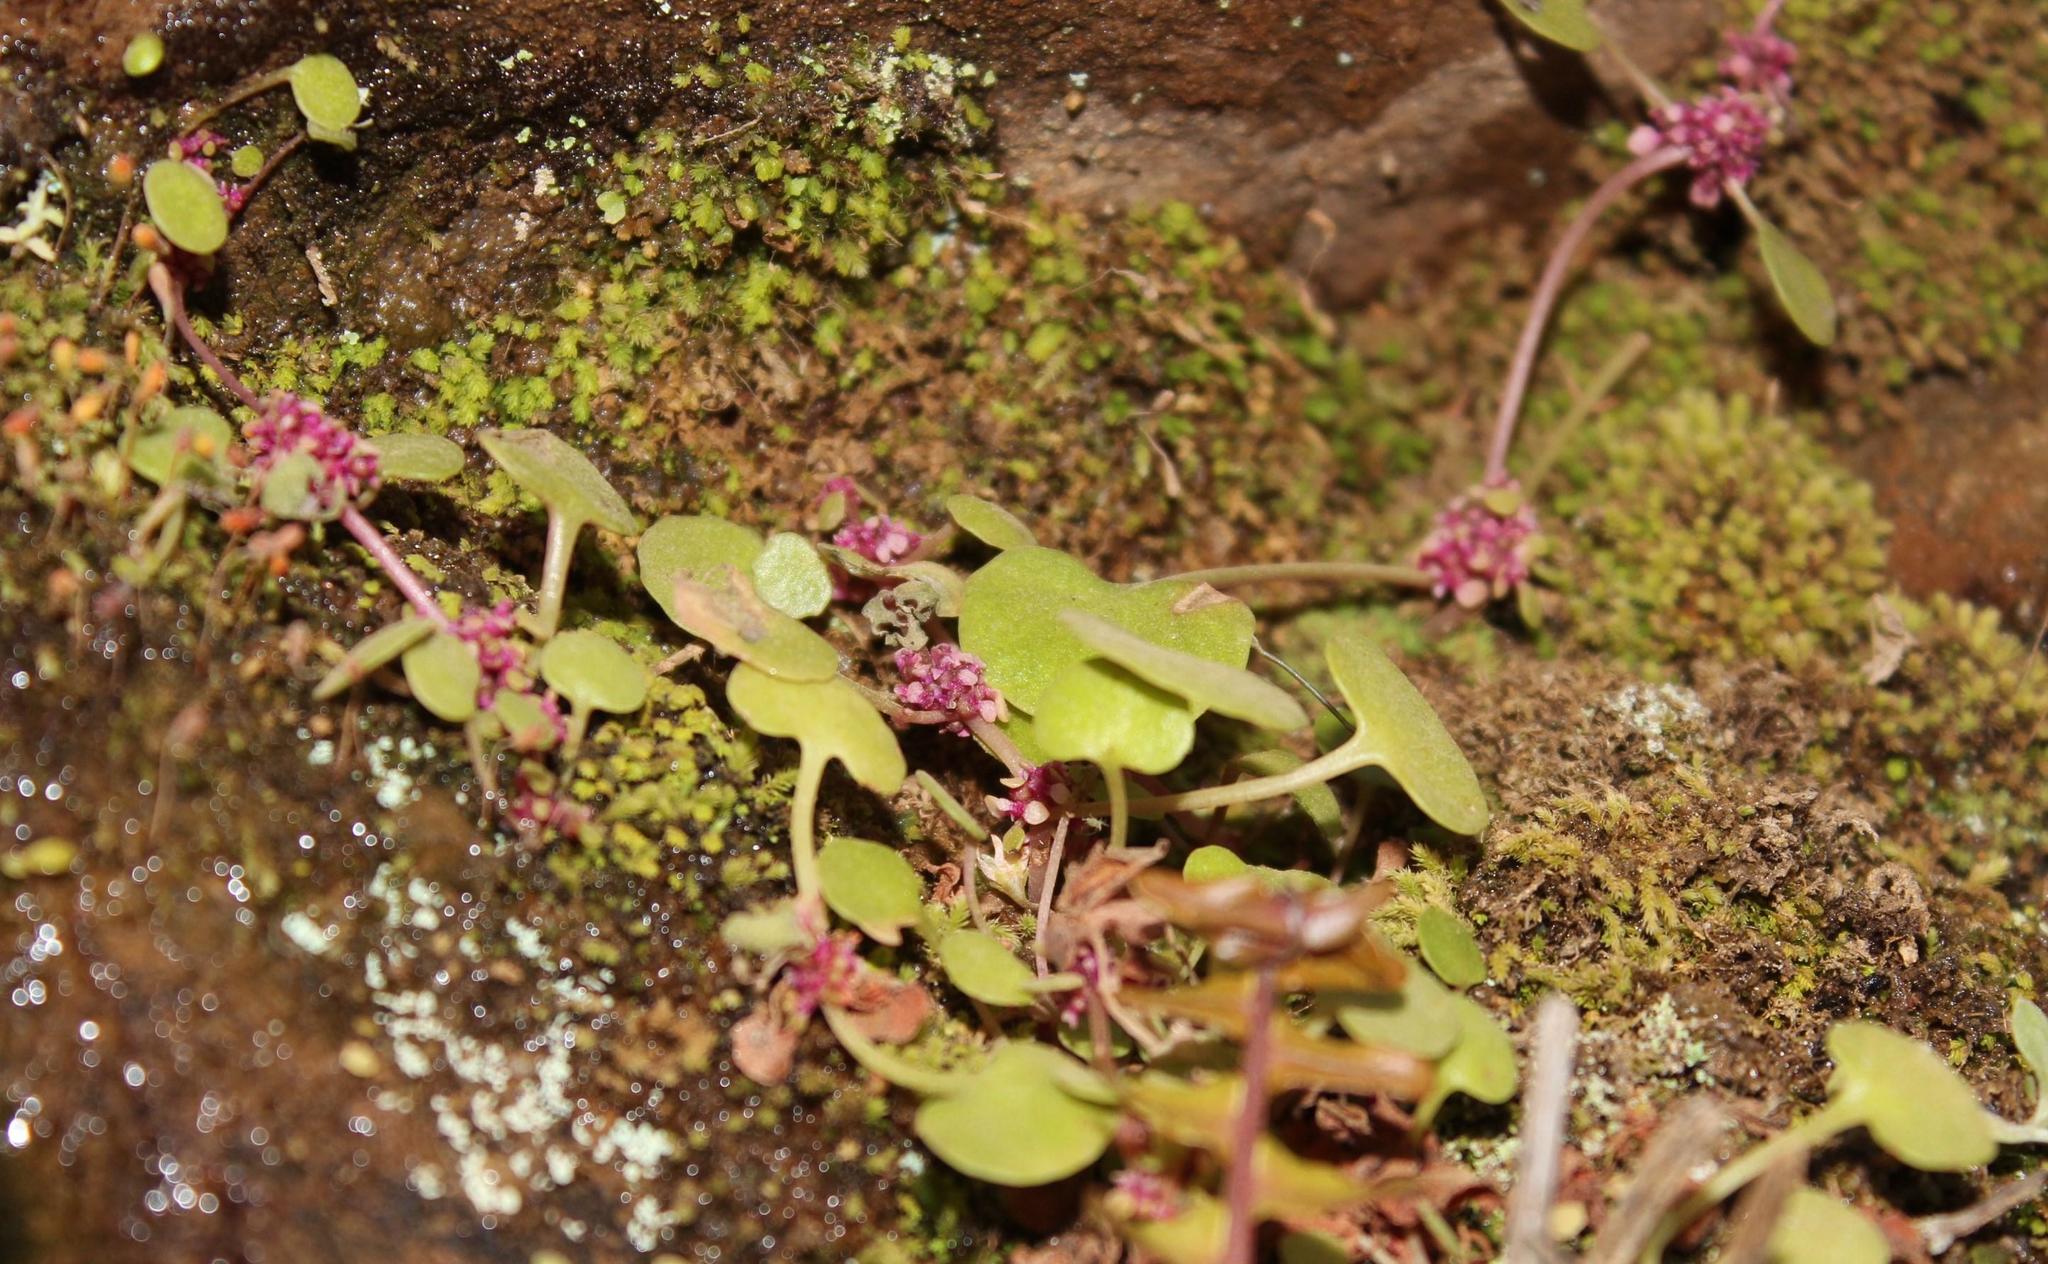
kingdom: Plantae
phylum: Tracheophyta
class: Magnoliopsida
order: Saxifragales
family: Crassulaceae
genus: Crassula
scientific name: Crassula dentata
